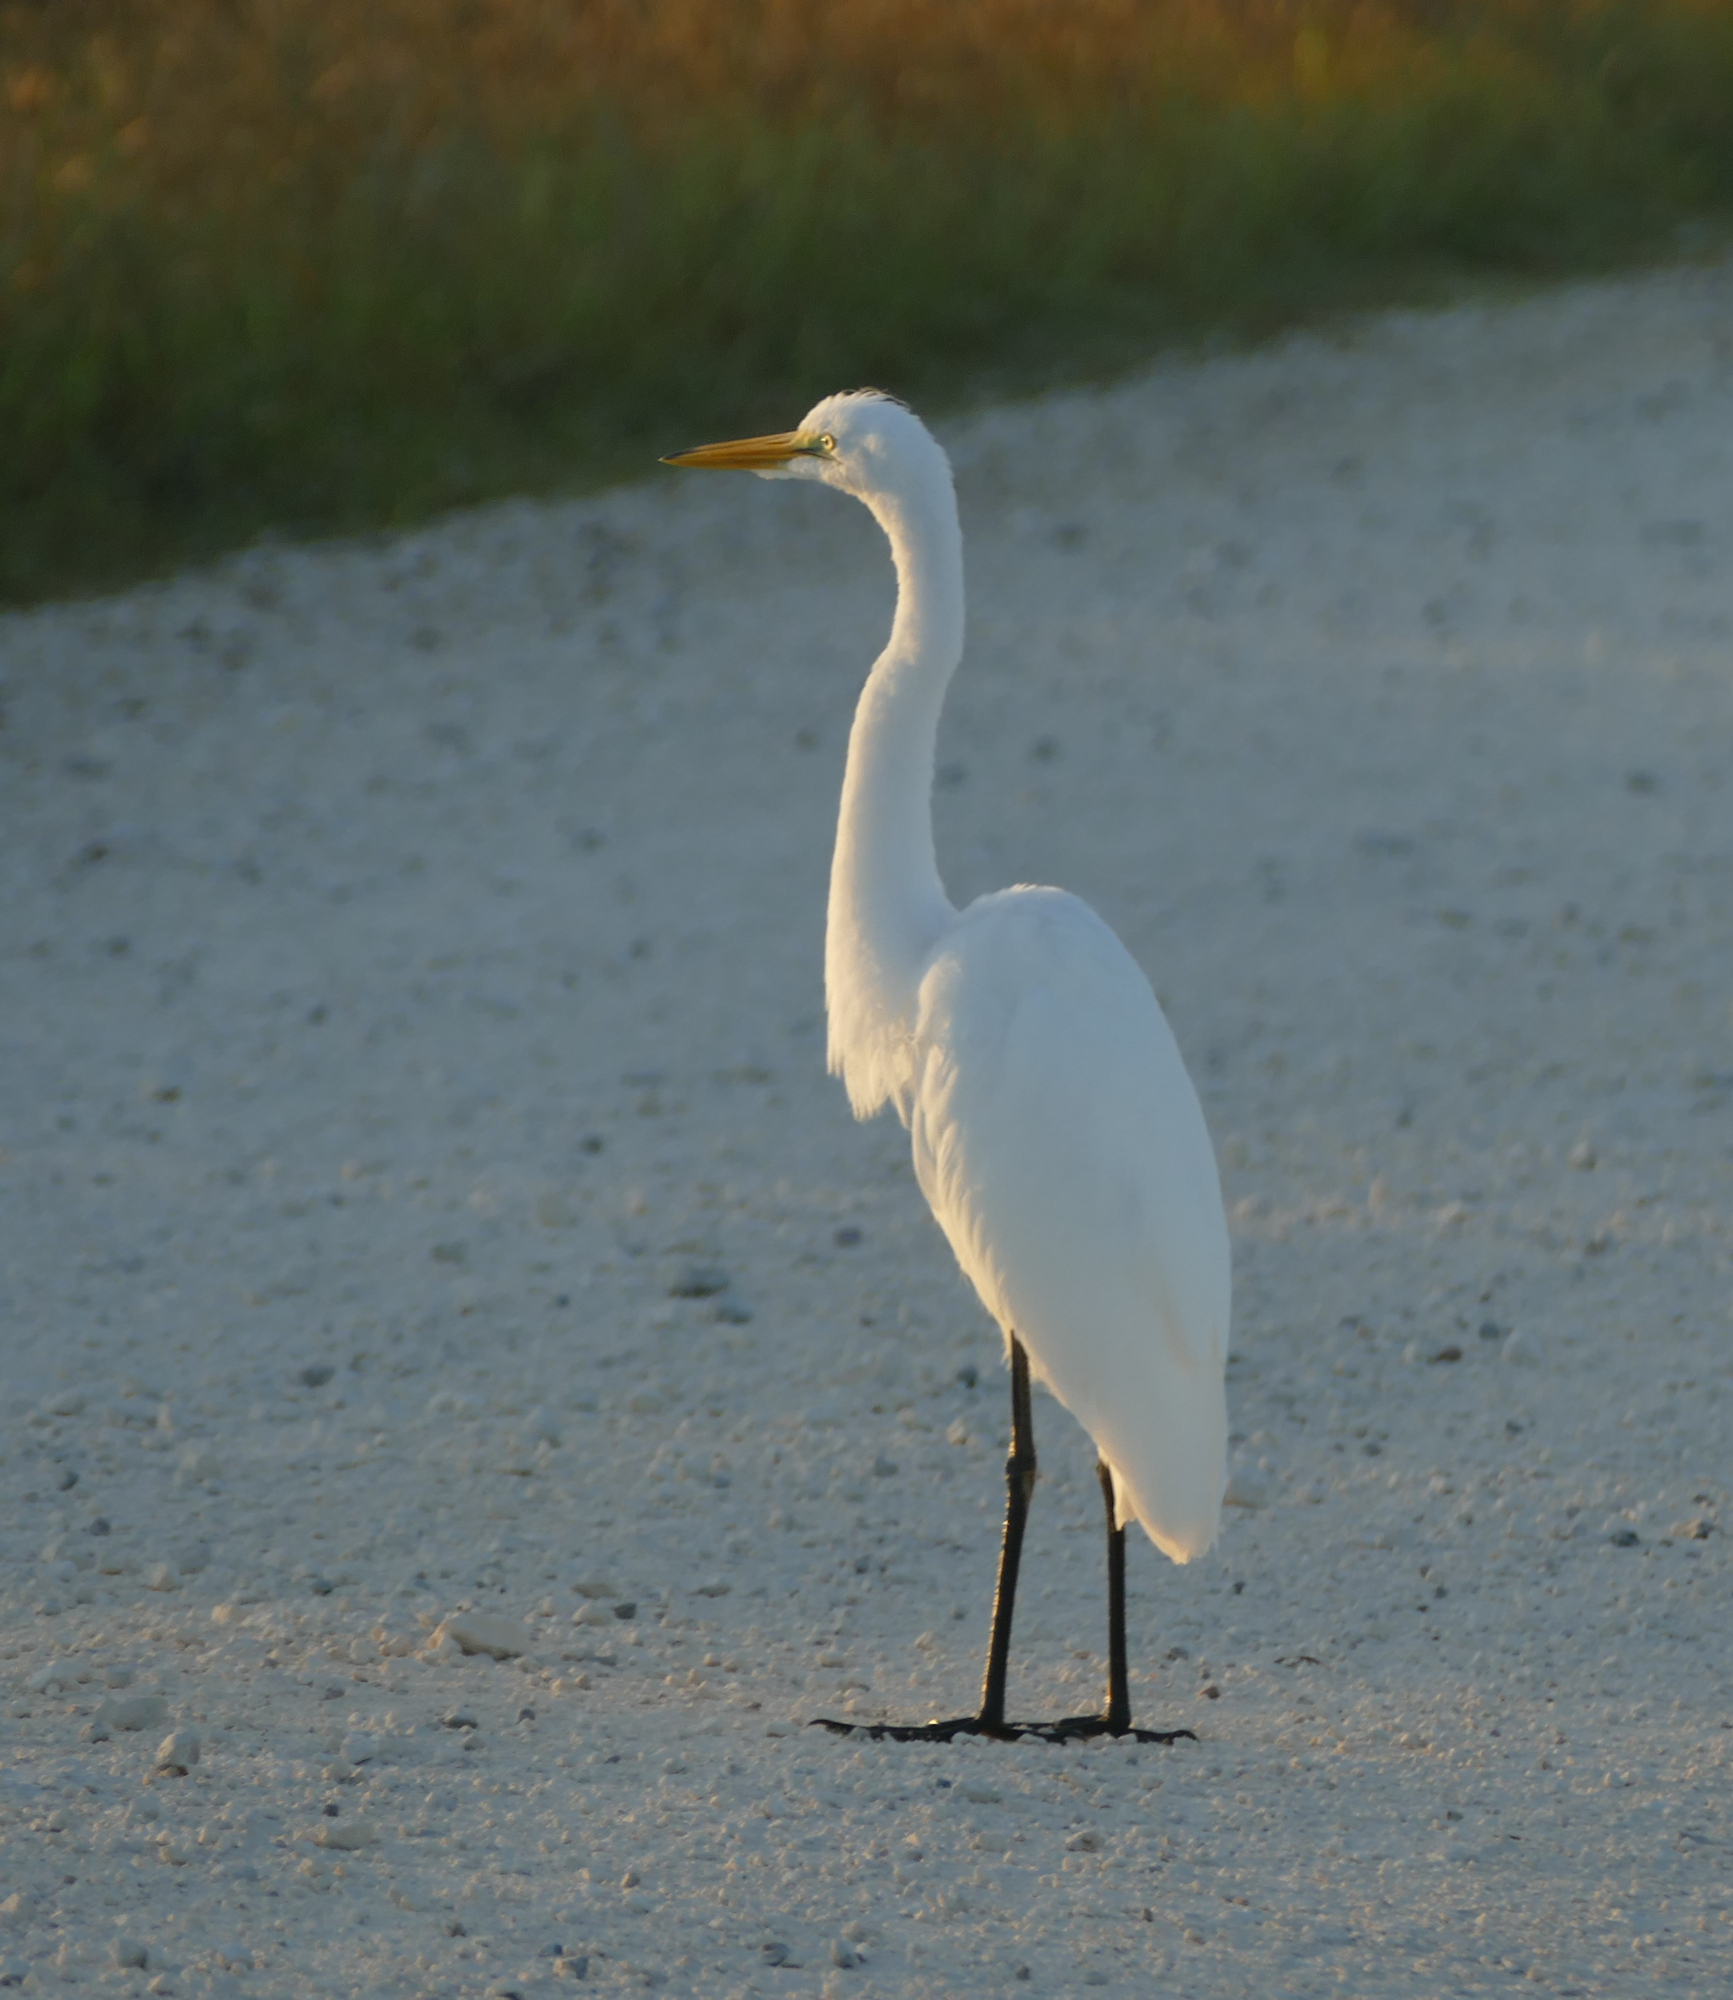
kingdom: Animalia
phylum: Chordata
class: Aves
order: Pelecaniformes
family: Ardeidae
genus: Ardea
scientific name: Ardea alba
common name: Great egret
